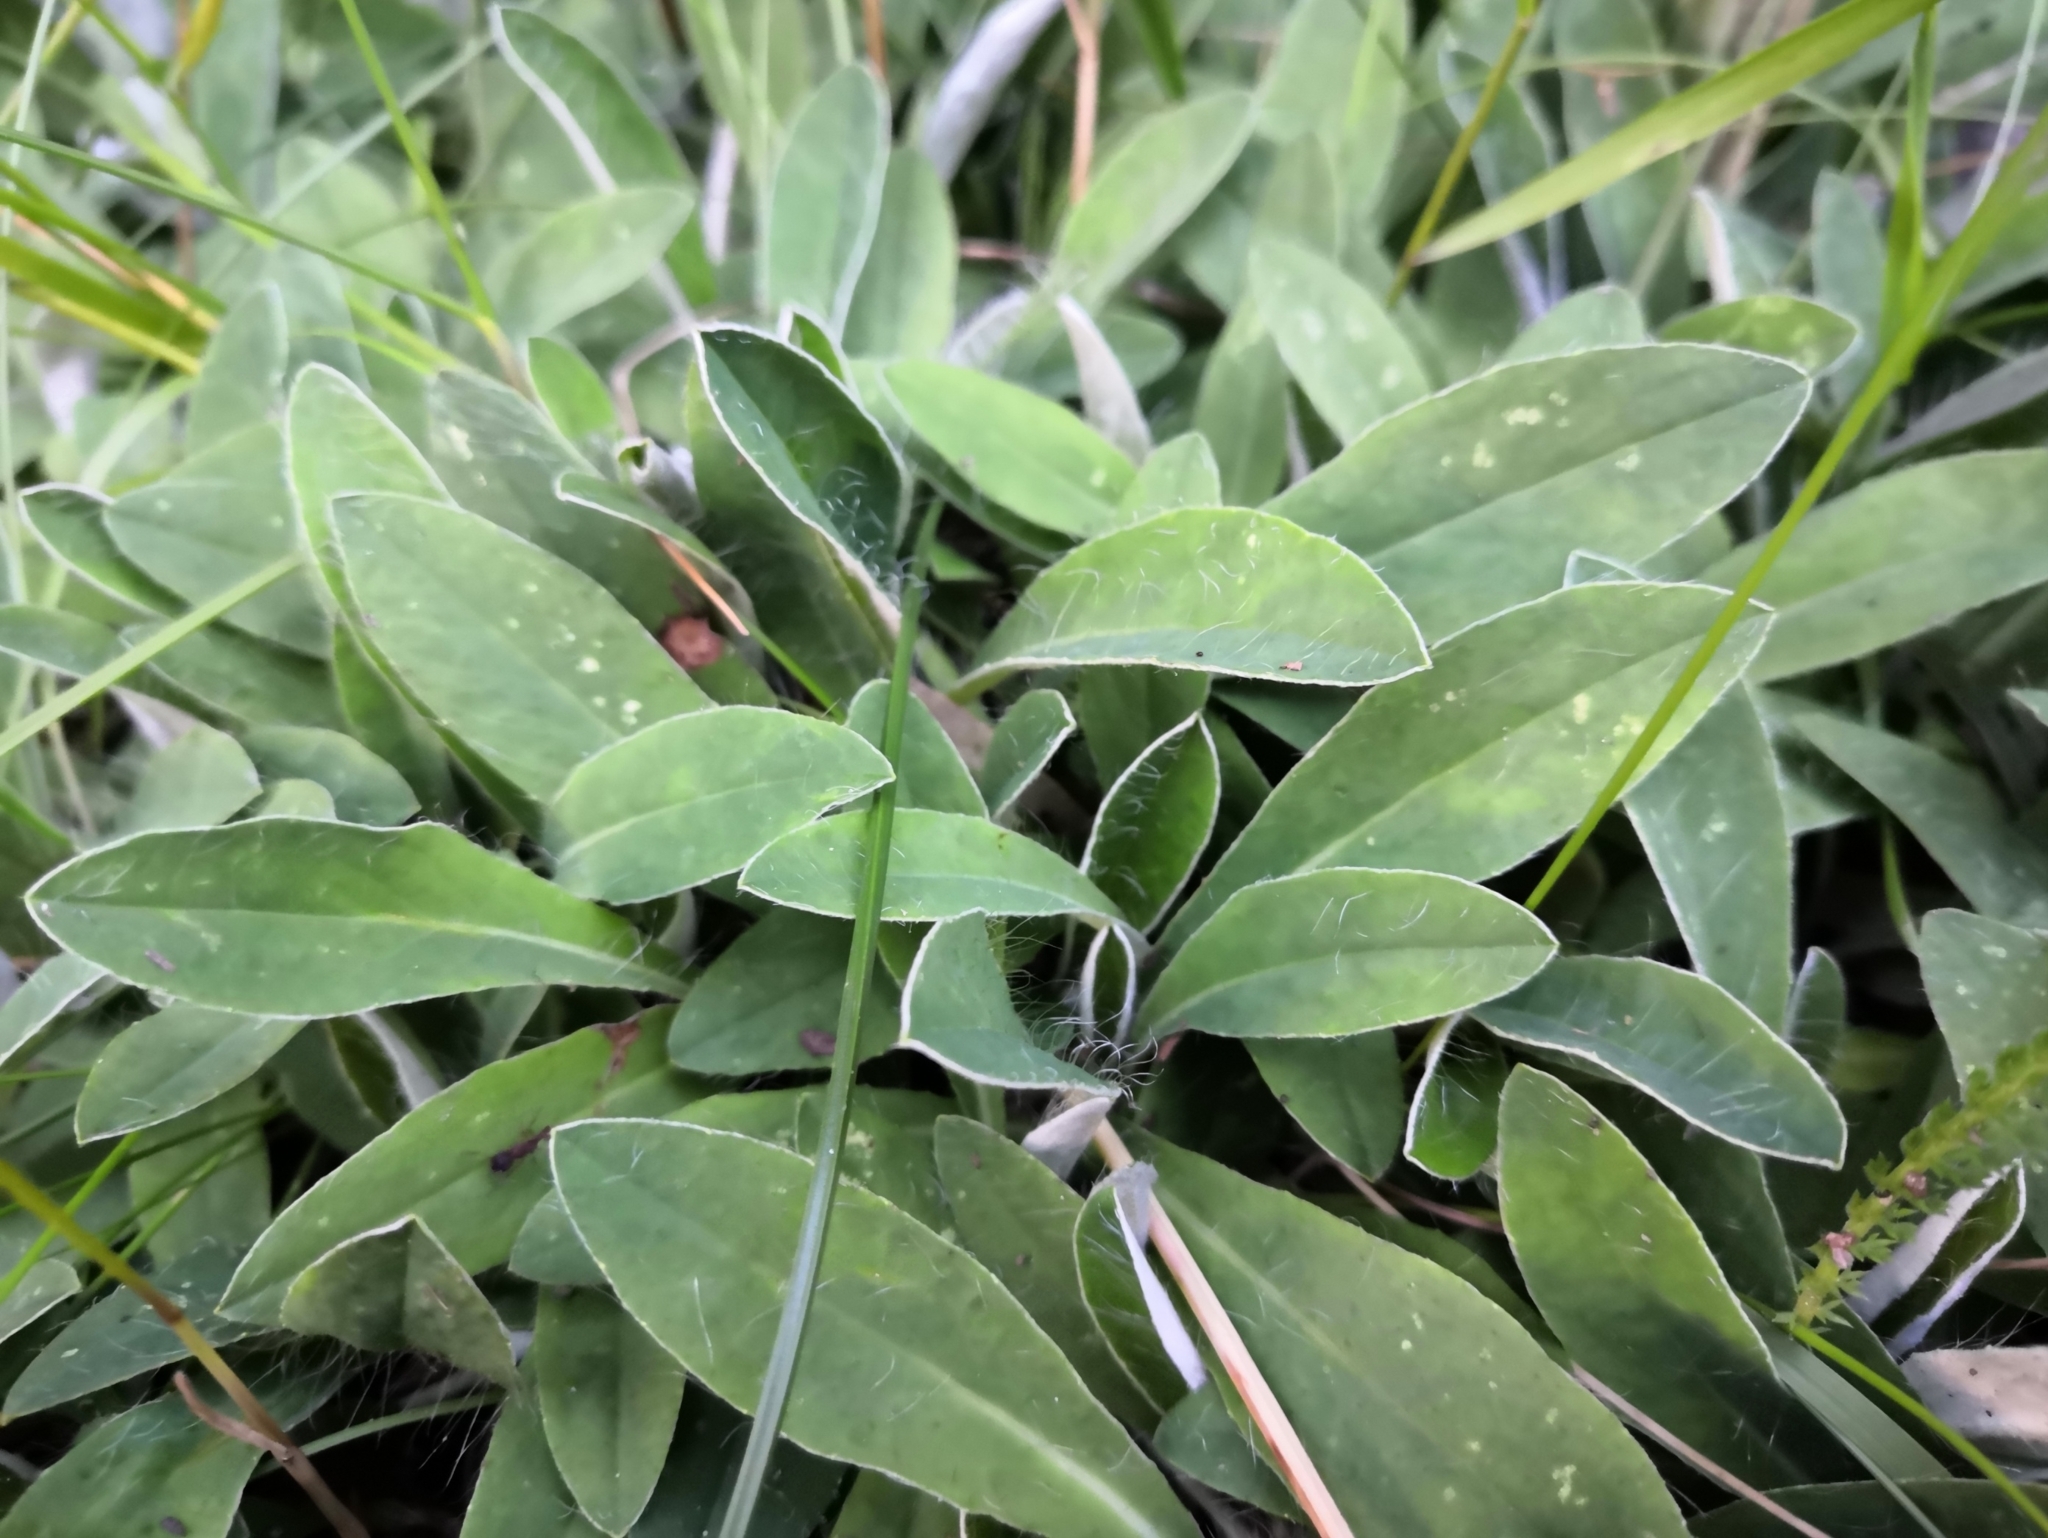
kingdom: Plantae
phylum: Tracheophyta
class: Magnoliopsida
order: Asterales
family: Asteraceae
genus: Pilosella
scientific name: Pilosella officinarum
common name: Mouse-ear hawkweed
